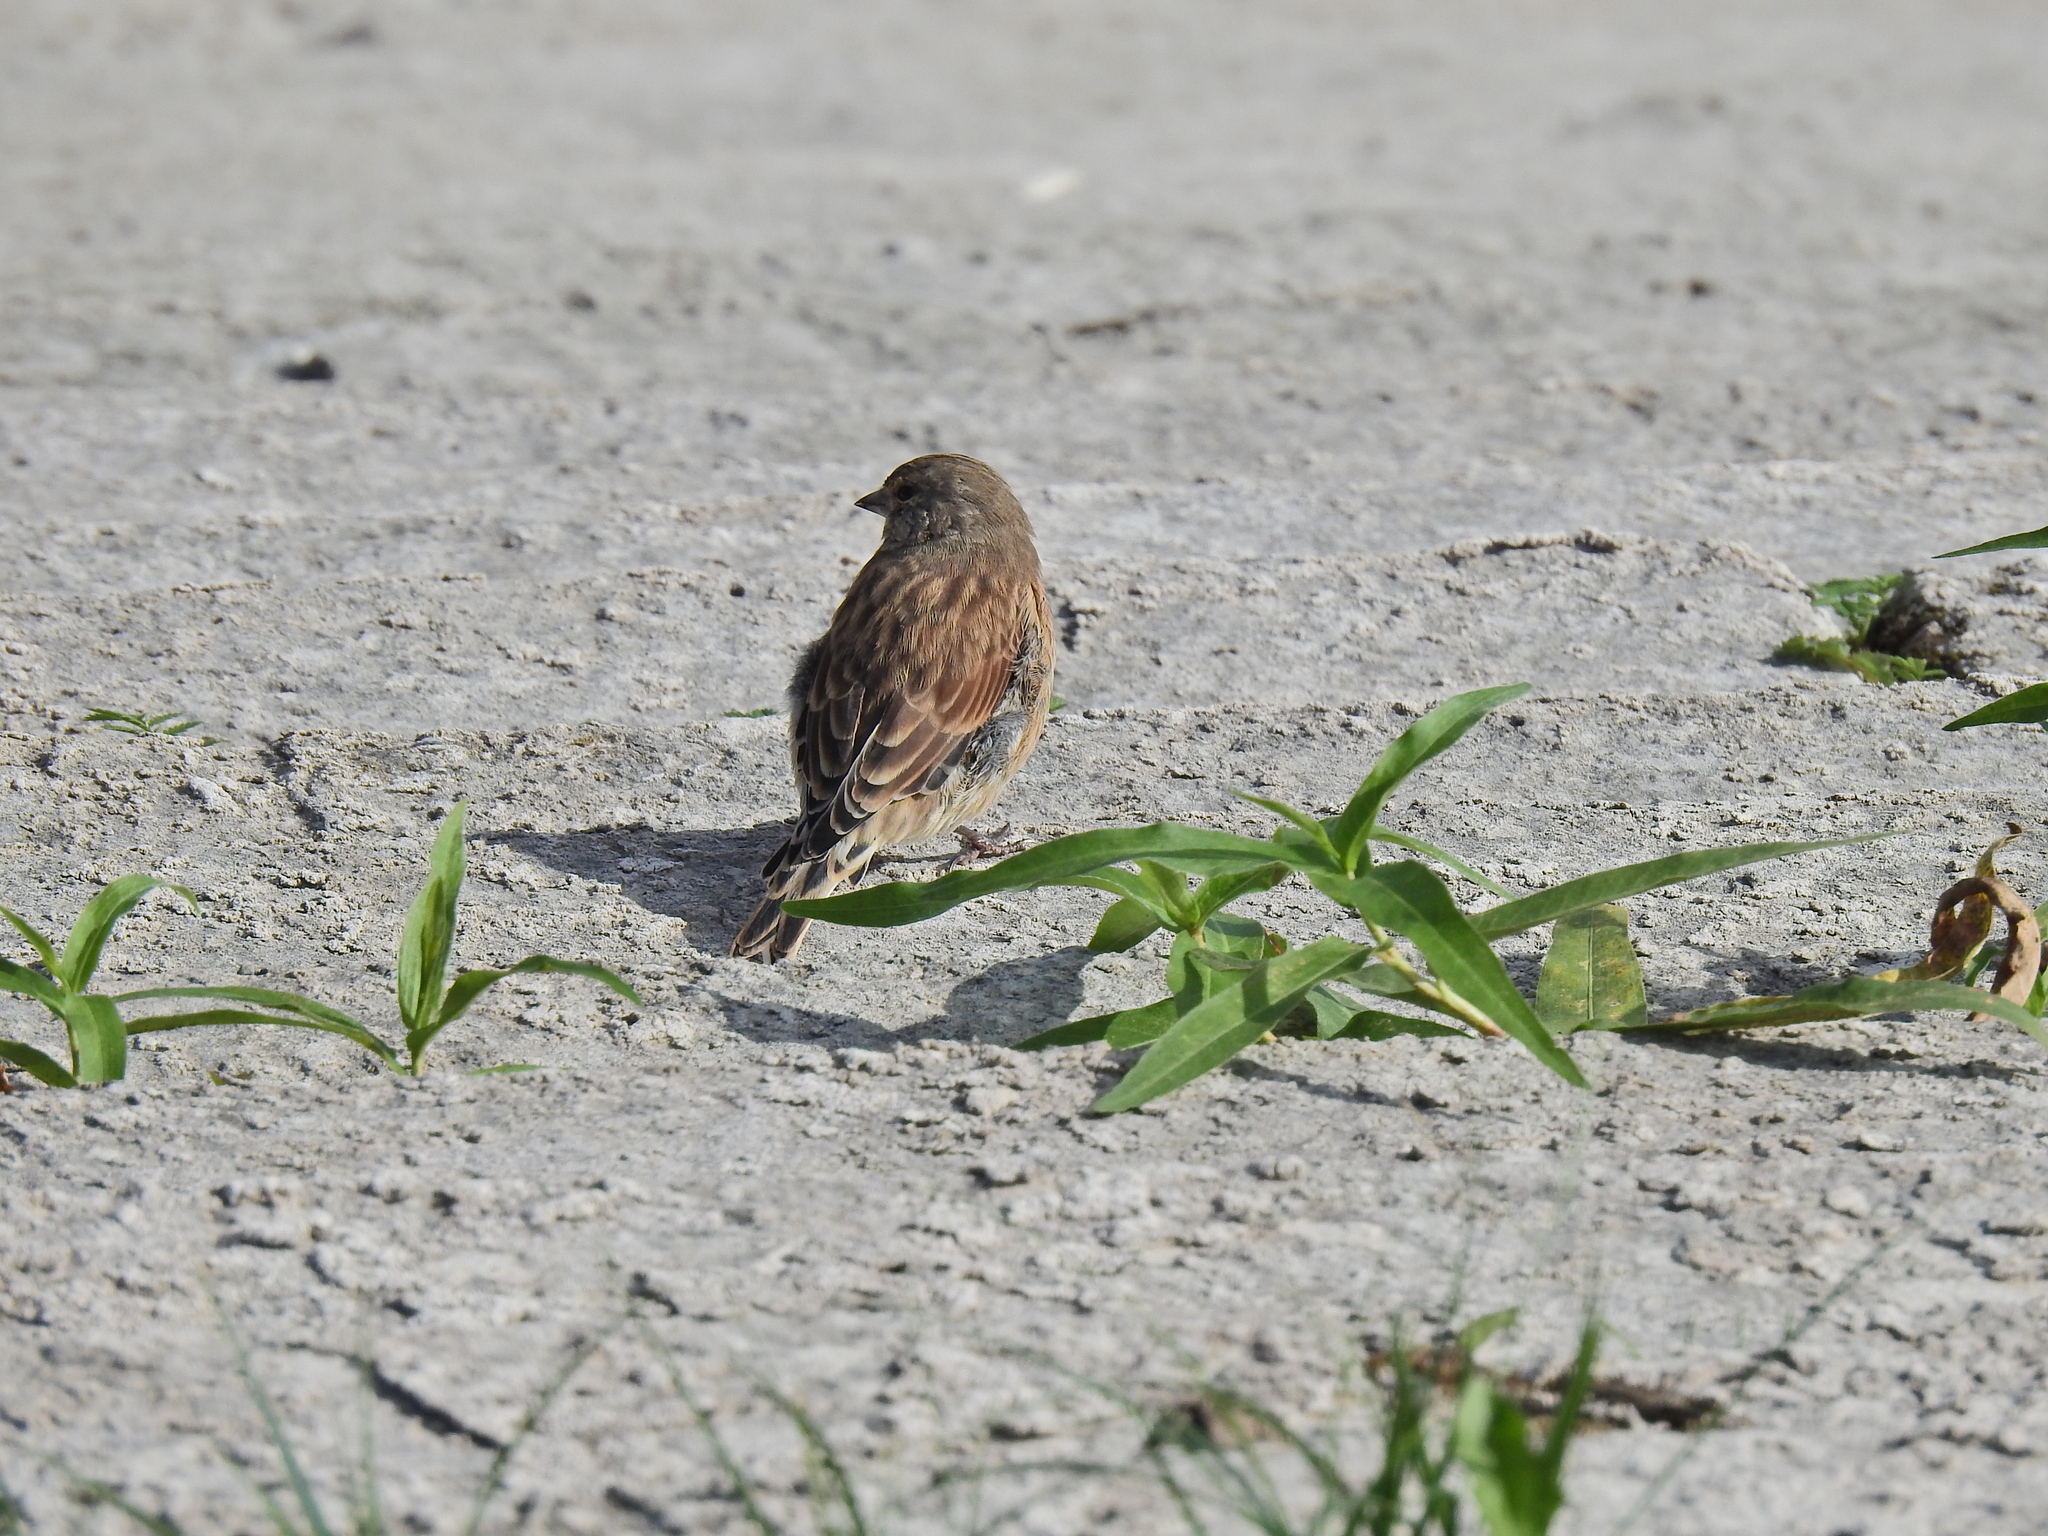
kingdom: Animalia
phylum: Chordata
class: Aves
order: Passeriformes
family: Fringillidae
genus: Linaria
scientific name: Linaria cannabina
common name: Common linnet
